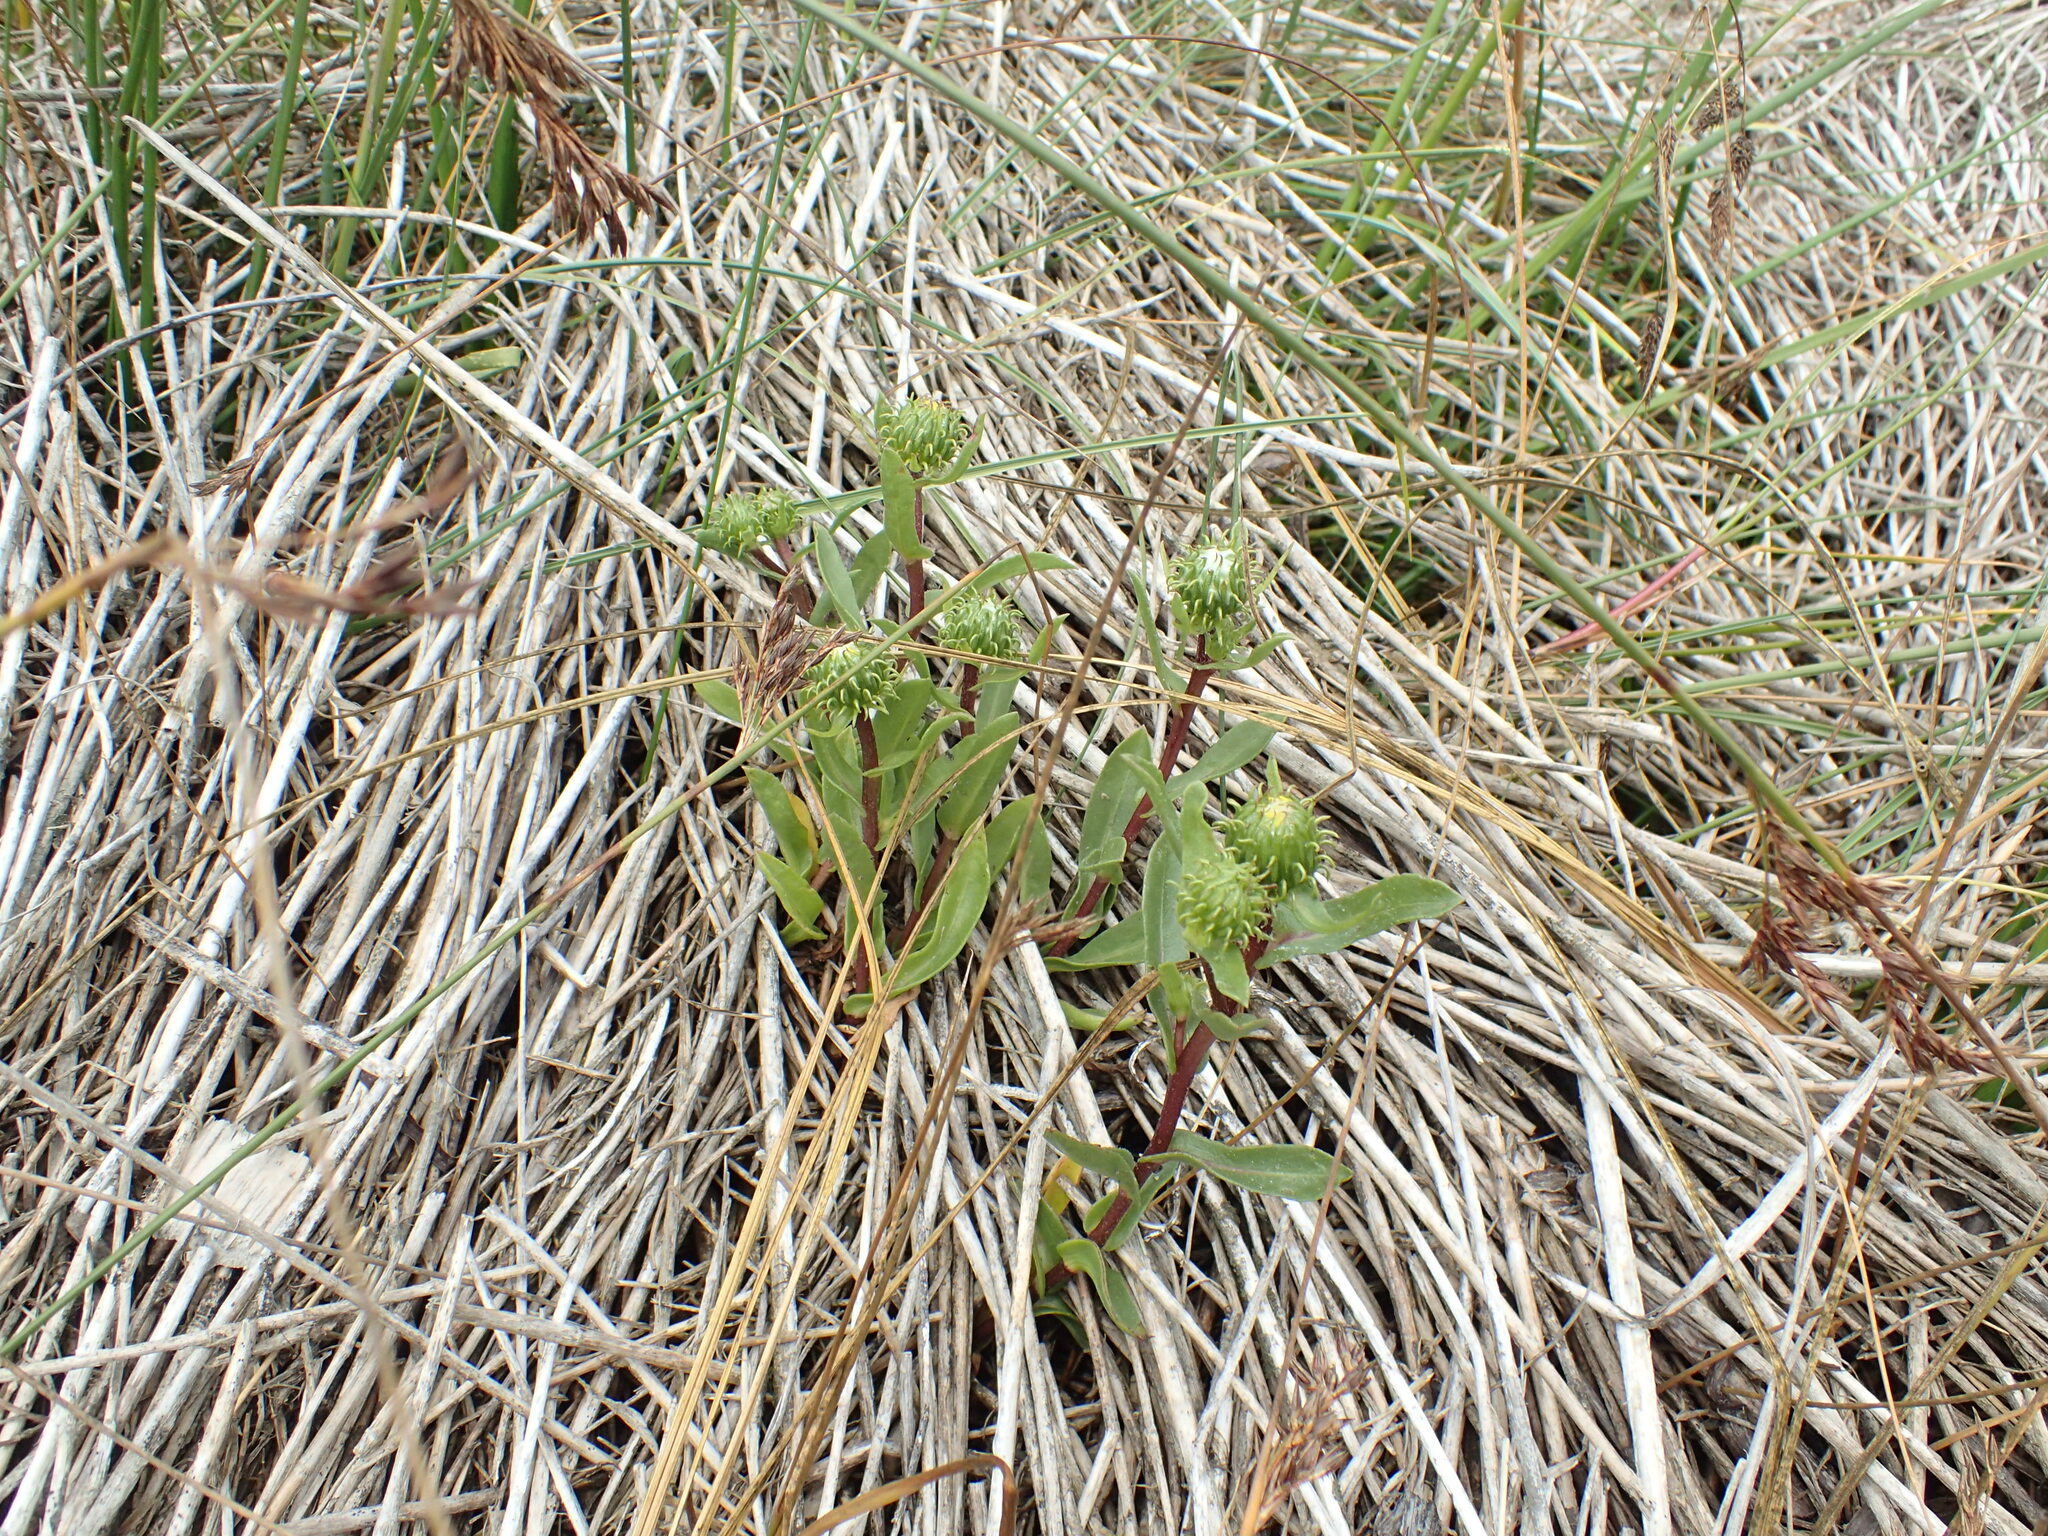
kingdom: Plantae
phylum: Tracheophyta
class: Magnoliopsida
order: Asterales
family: Asteraceae
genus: Grindelia
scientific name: Grindelia hirsutula
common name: Hairy gumweed
